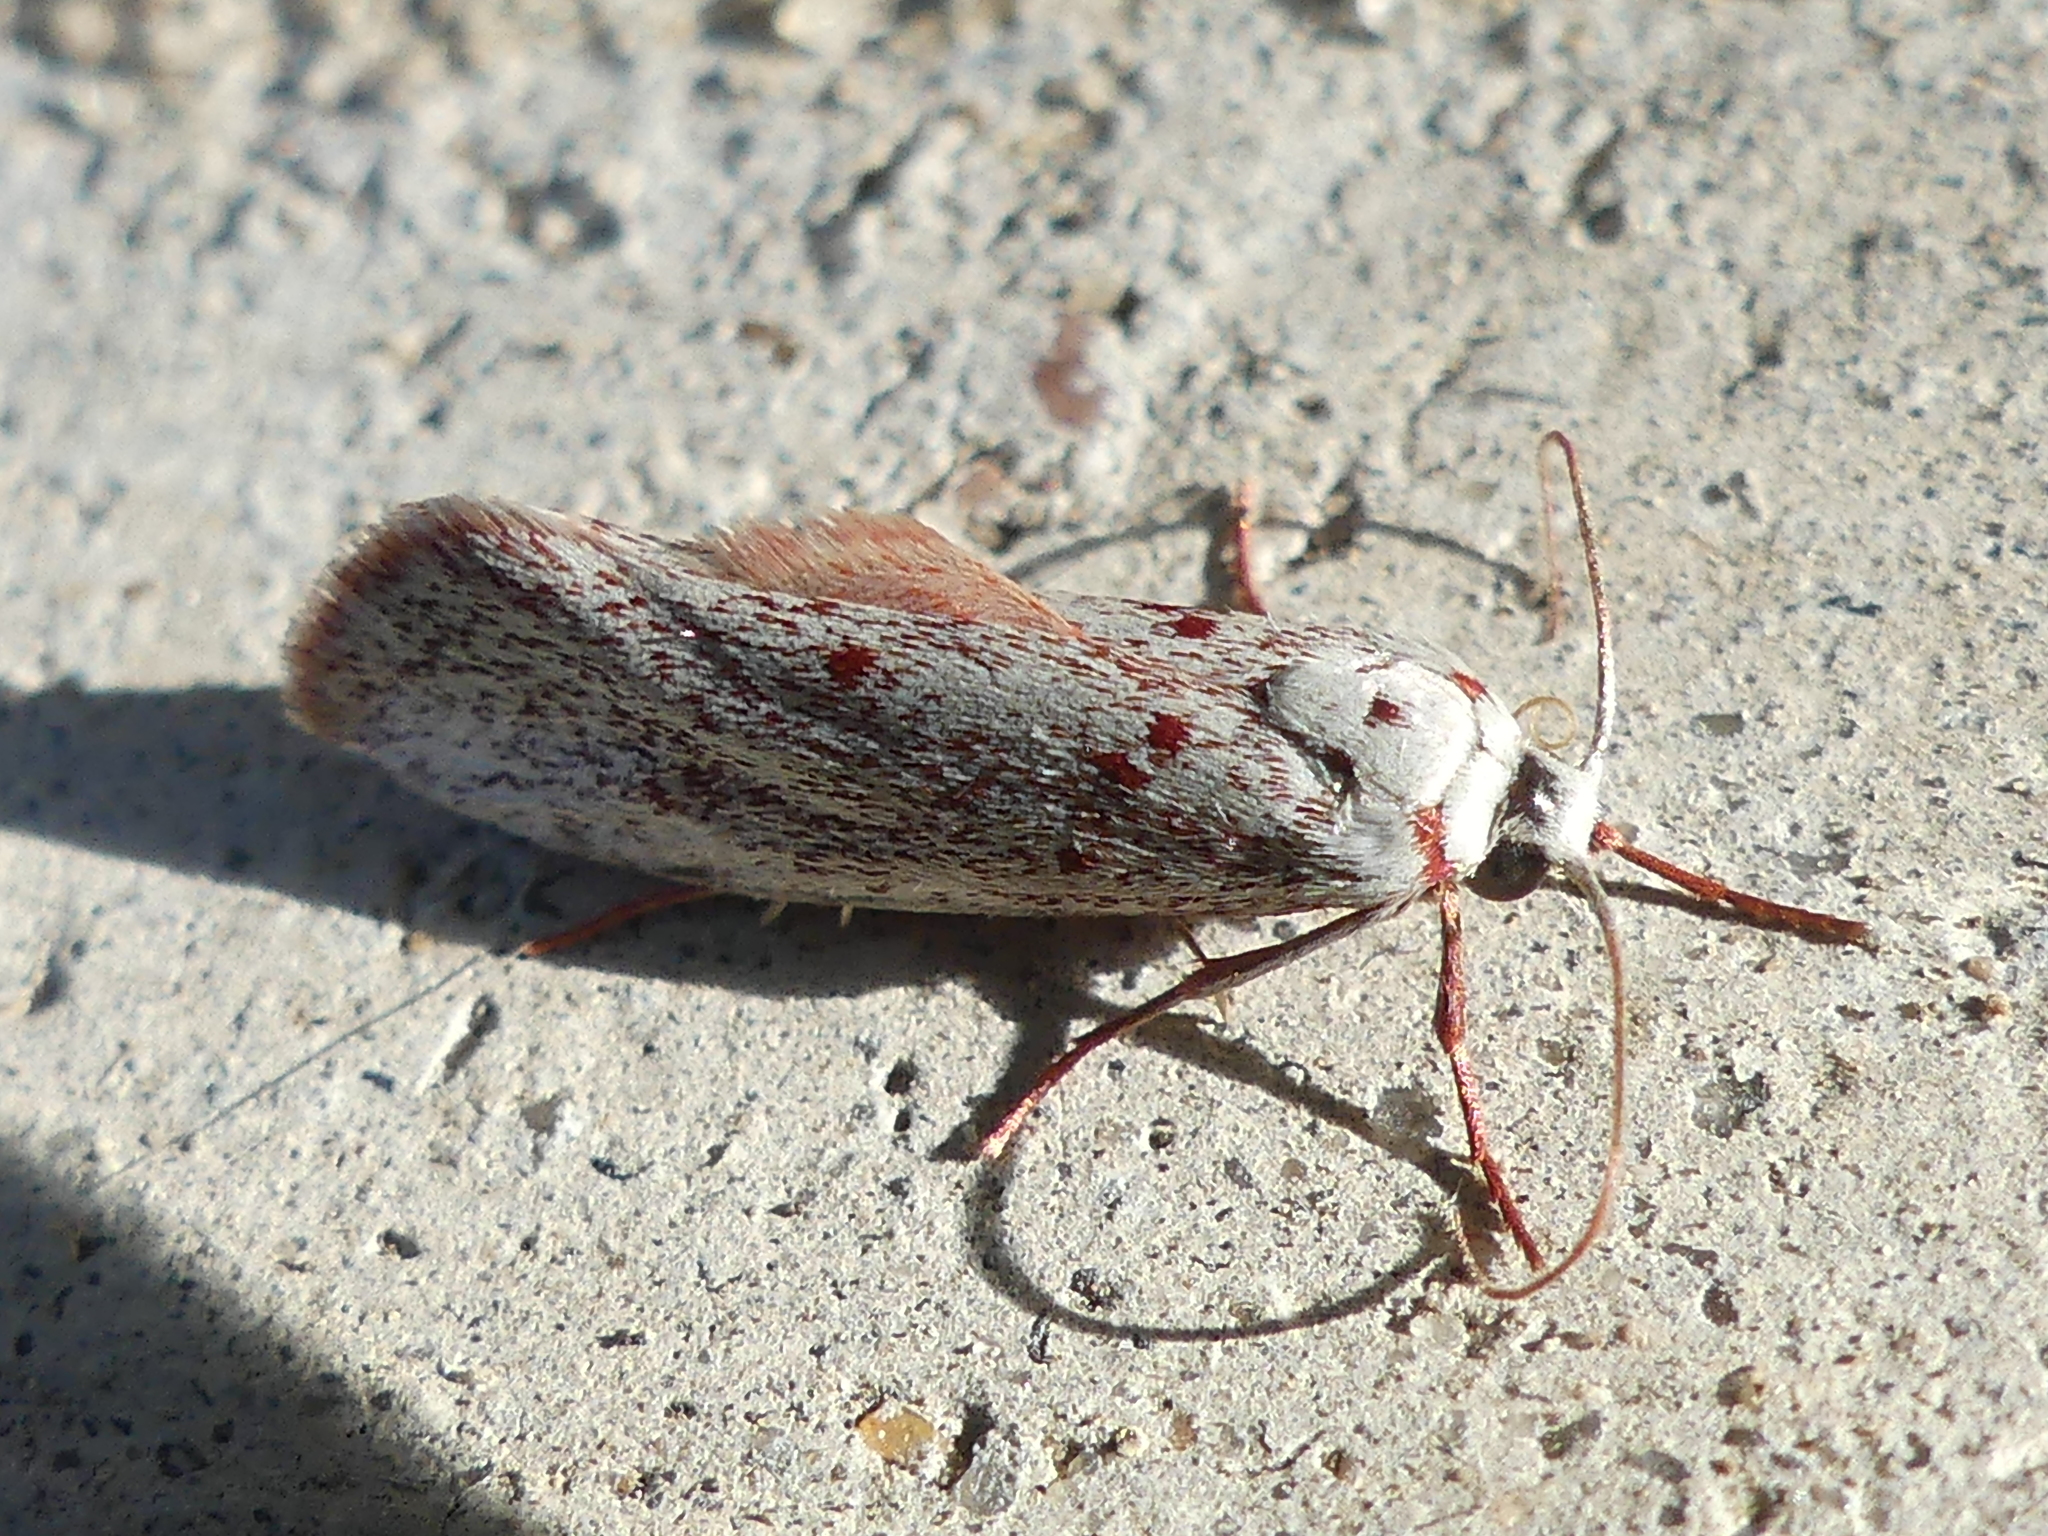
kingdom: Animalia
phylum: Arthropoda
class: Insecta
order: Lepidoptera
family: Lacturidae
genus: Lactura
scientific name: Lactura
